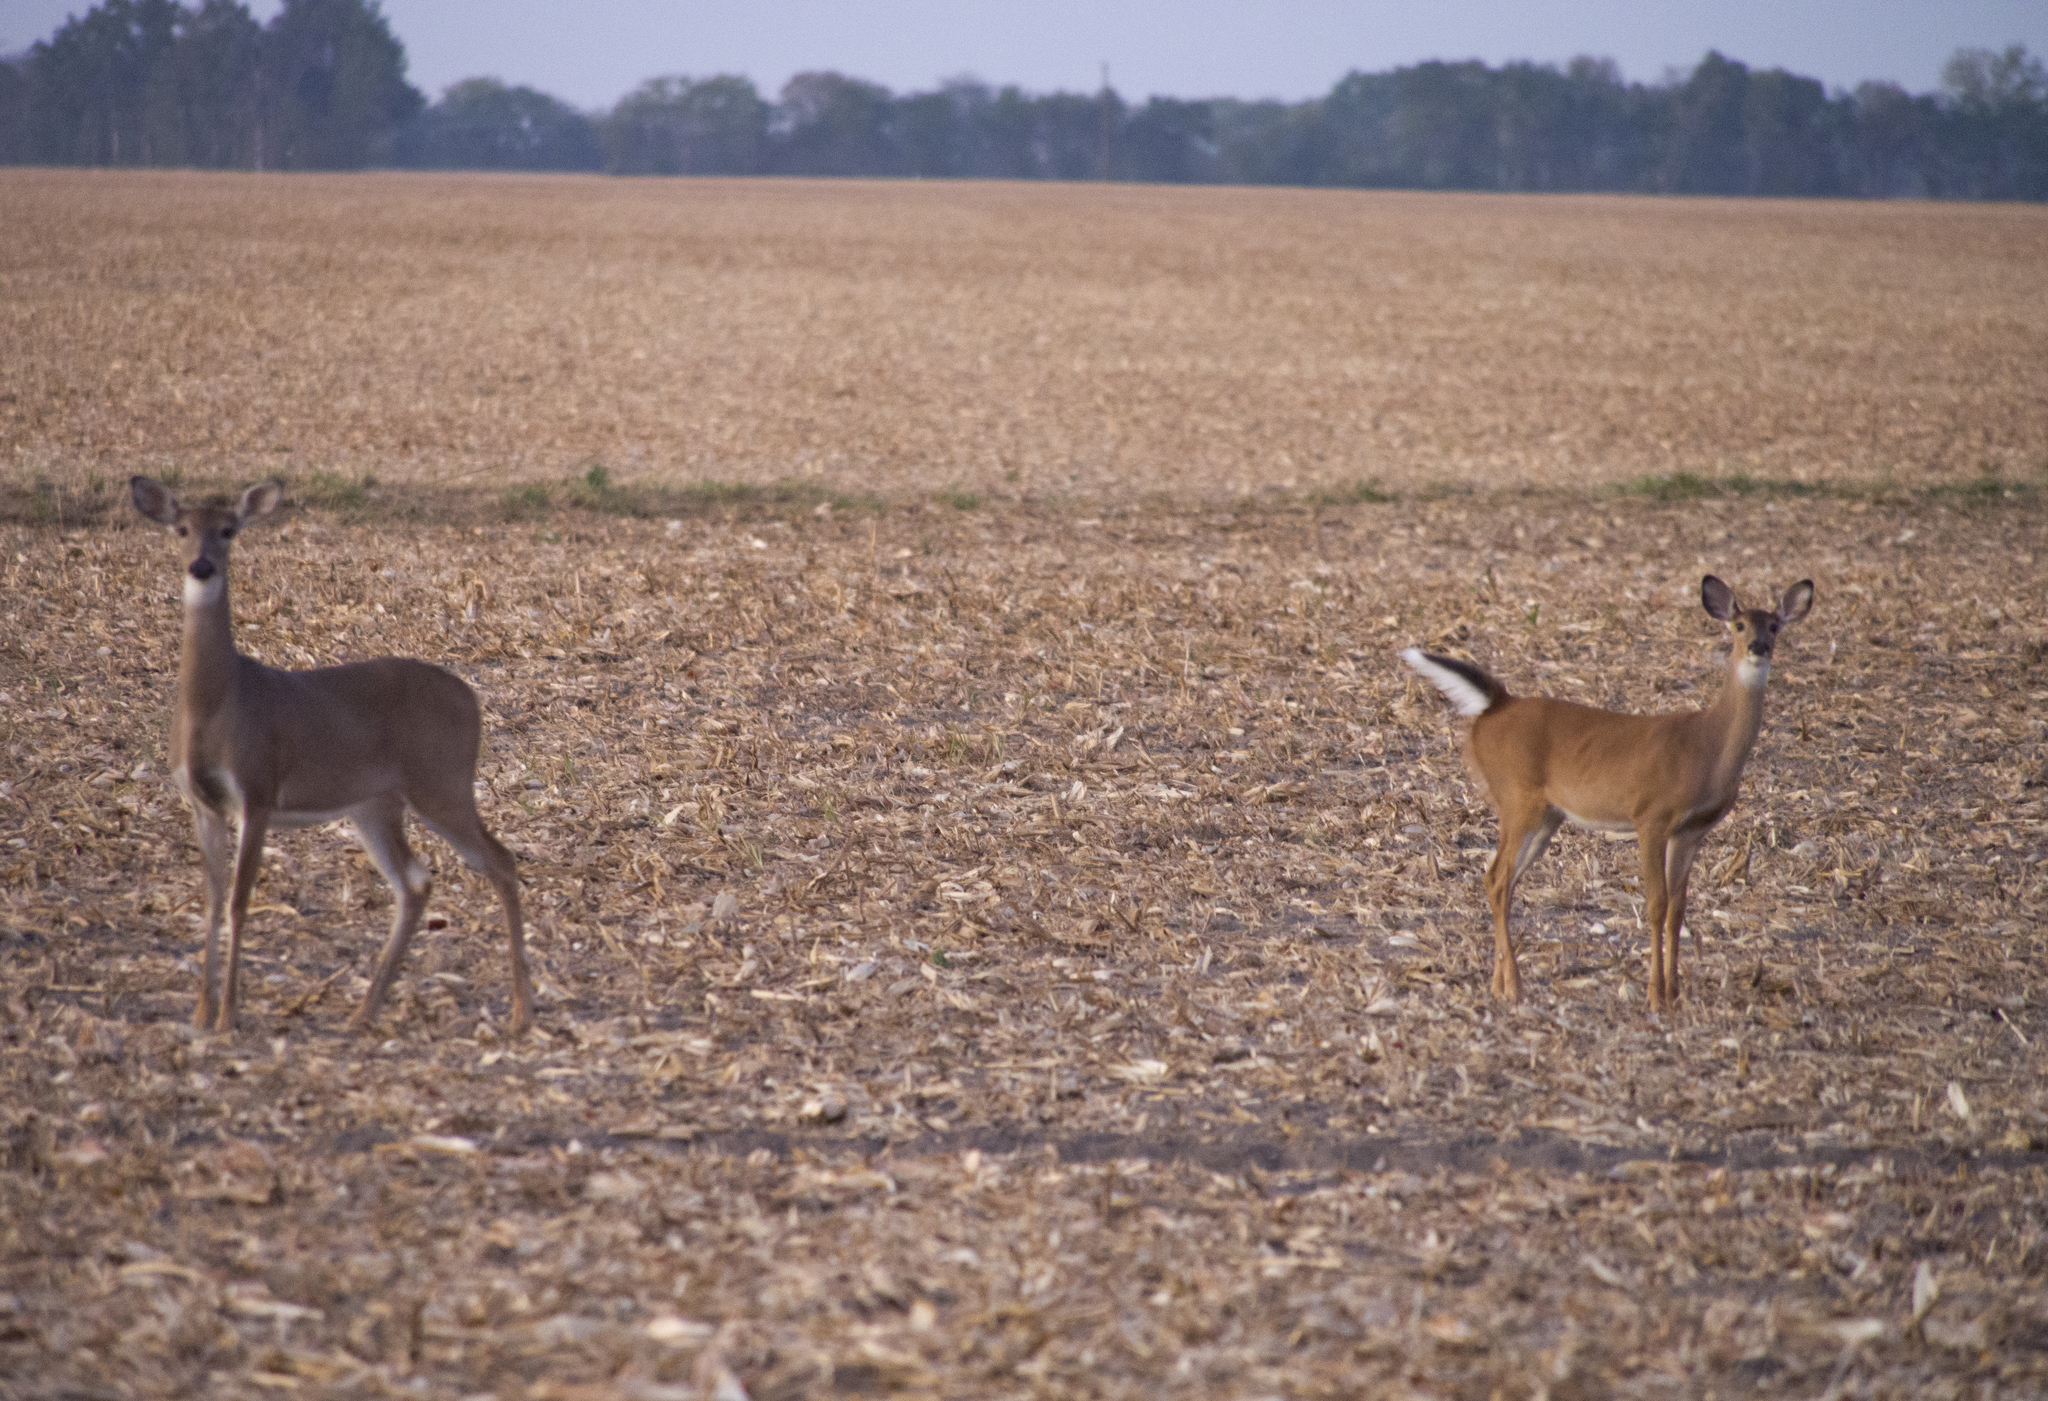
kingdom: Animalia
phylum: Chordata
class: Mammalia
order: Artiodactyla
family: Cervidae
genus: Odocoileus
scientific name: Odocoileus virginianus
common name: White-tailed deer
